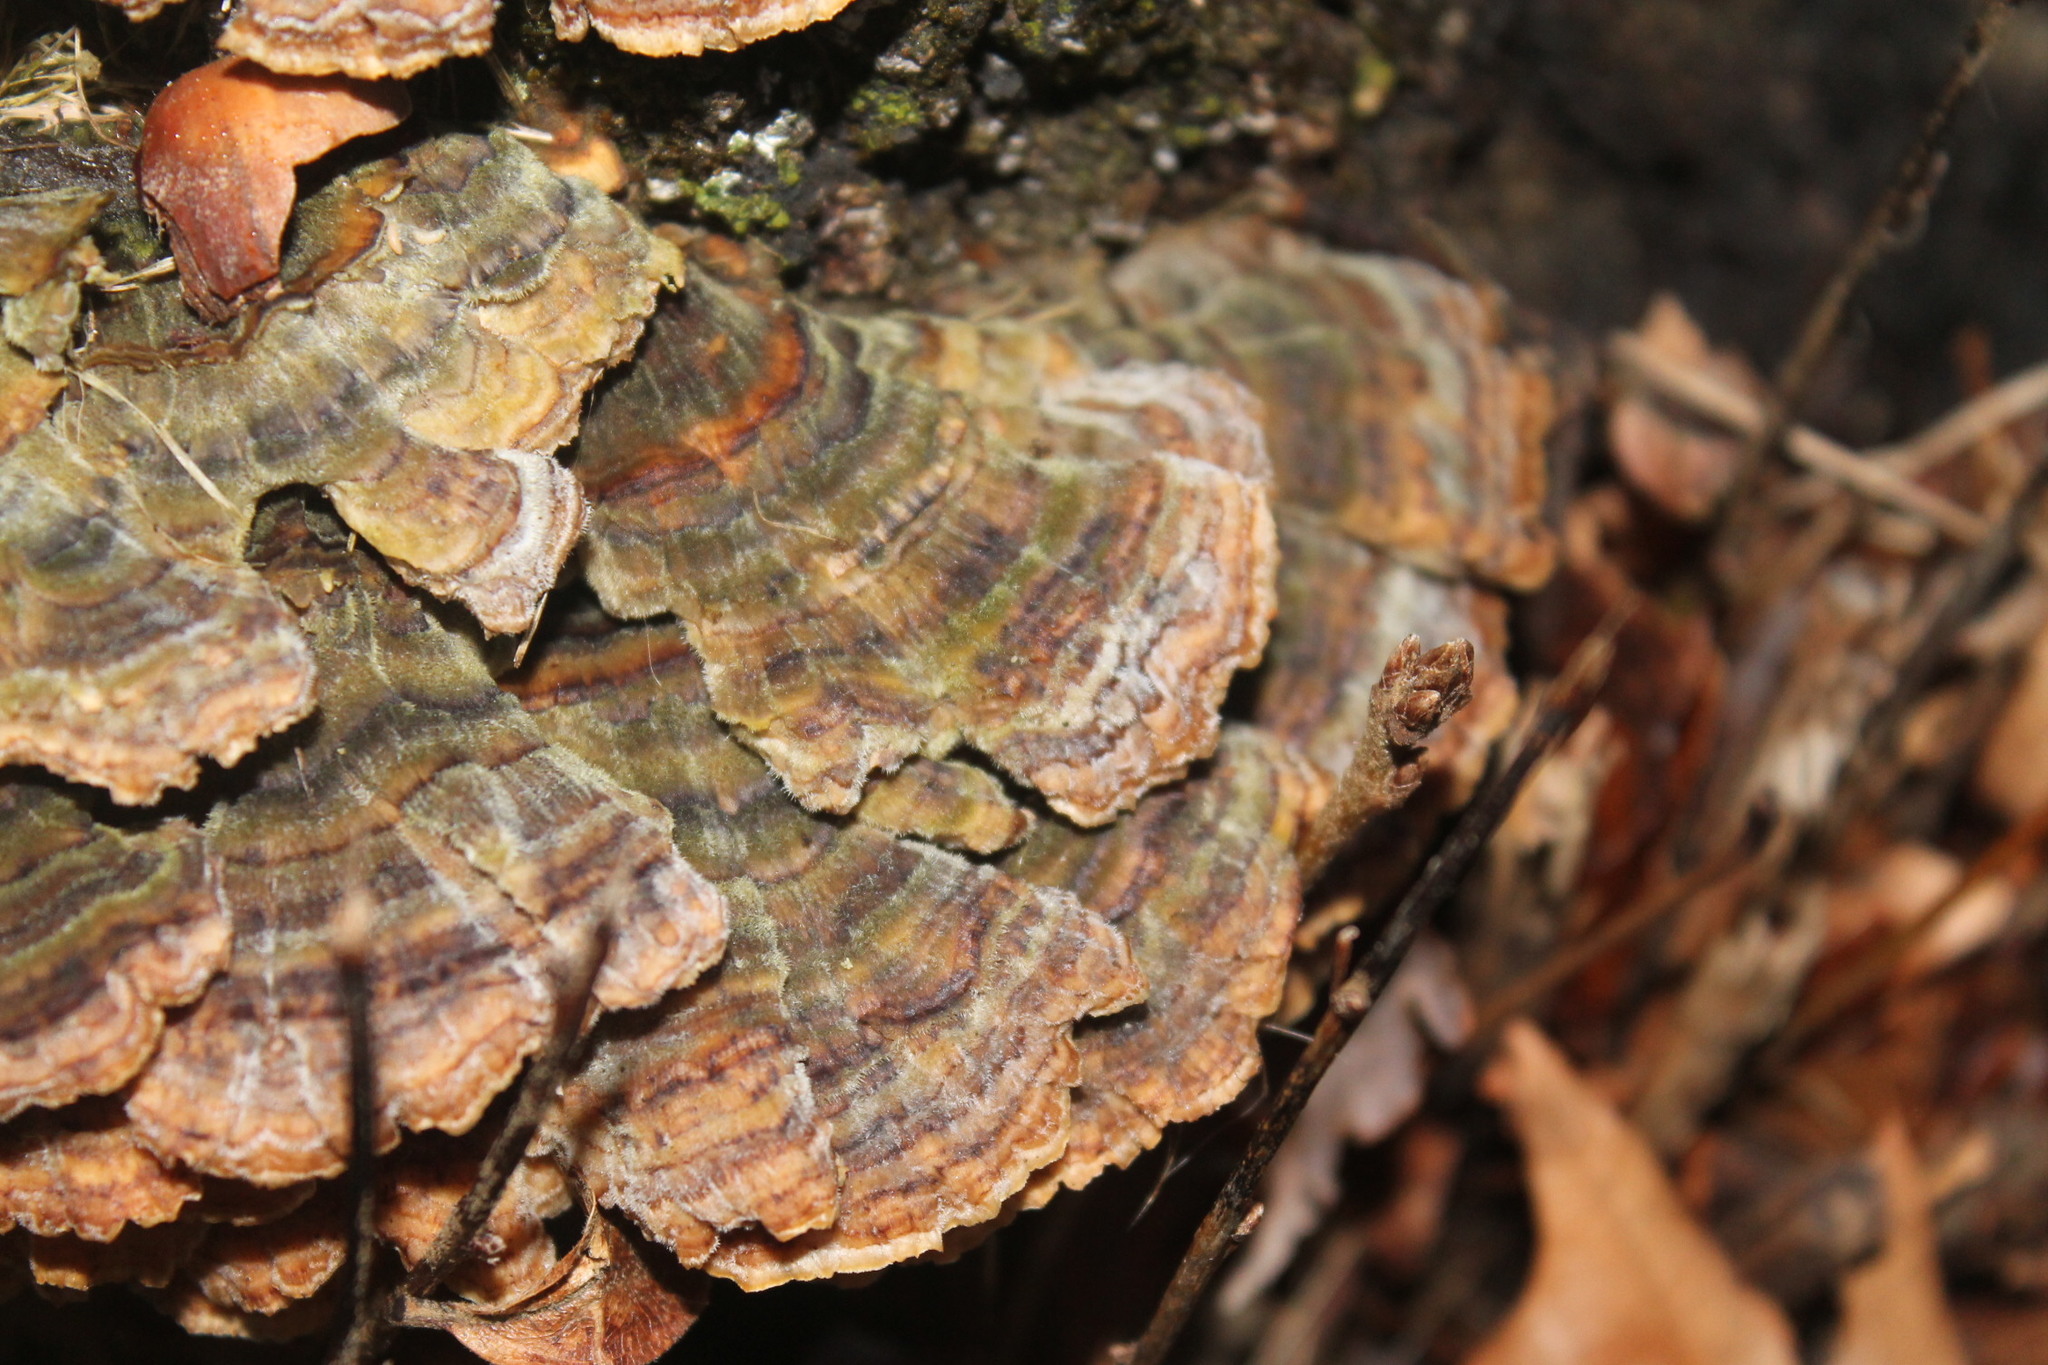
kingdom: Fungi
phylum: Basidiomycota
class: Agaricomycetes
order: Polyporales
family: Polyporaceae
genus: Trametes
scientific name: Trametes versicolor
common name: Turkeytail
